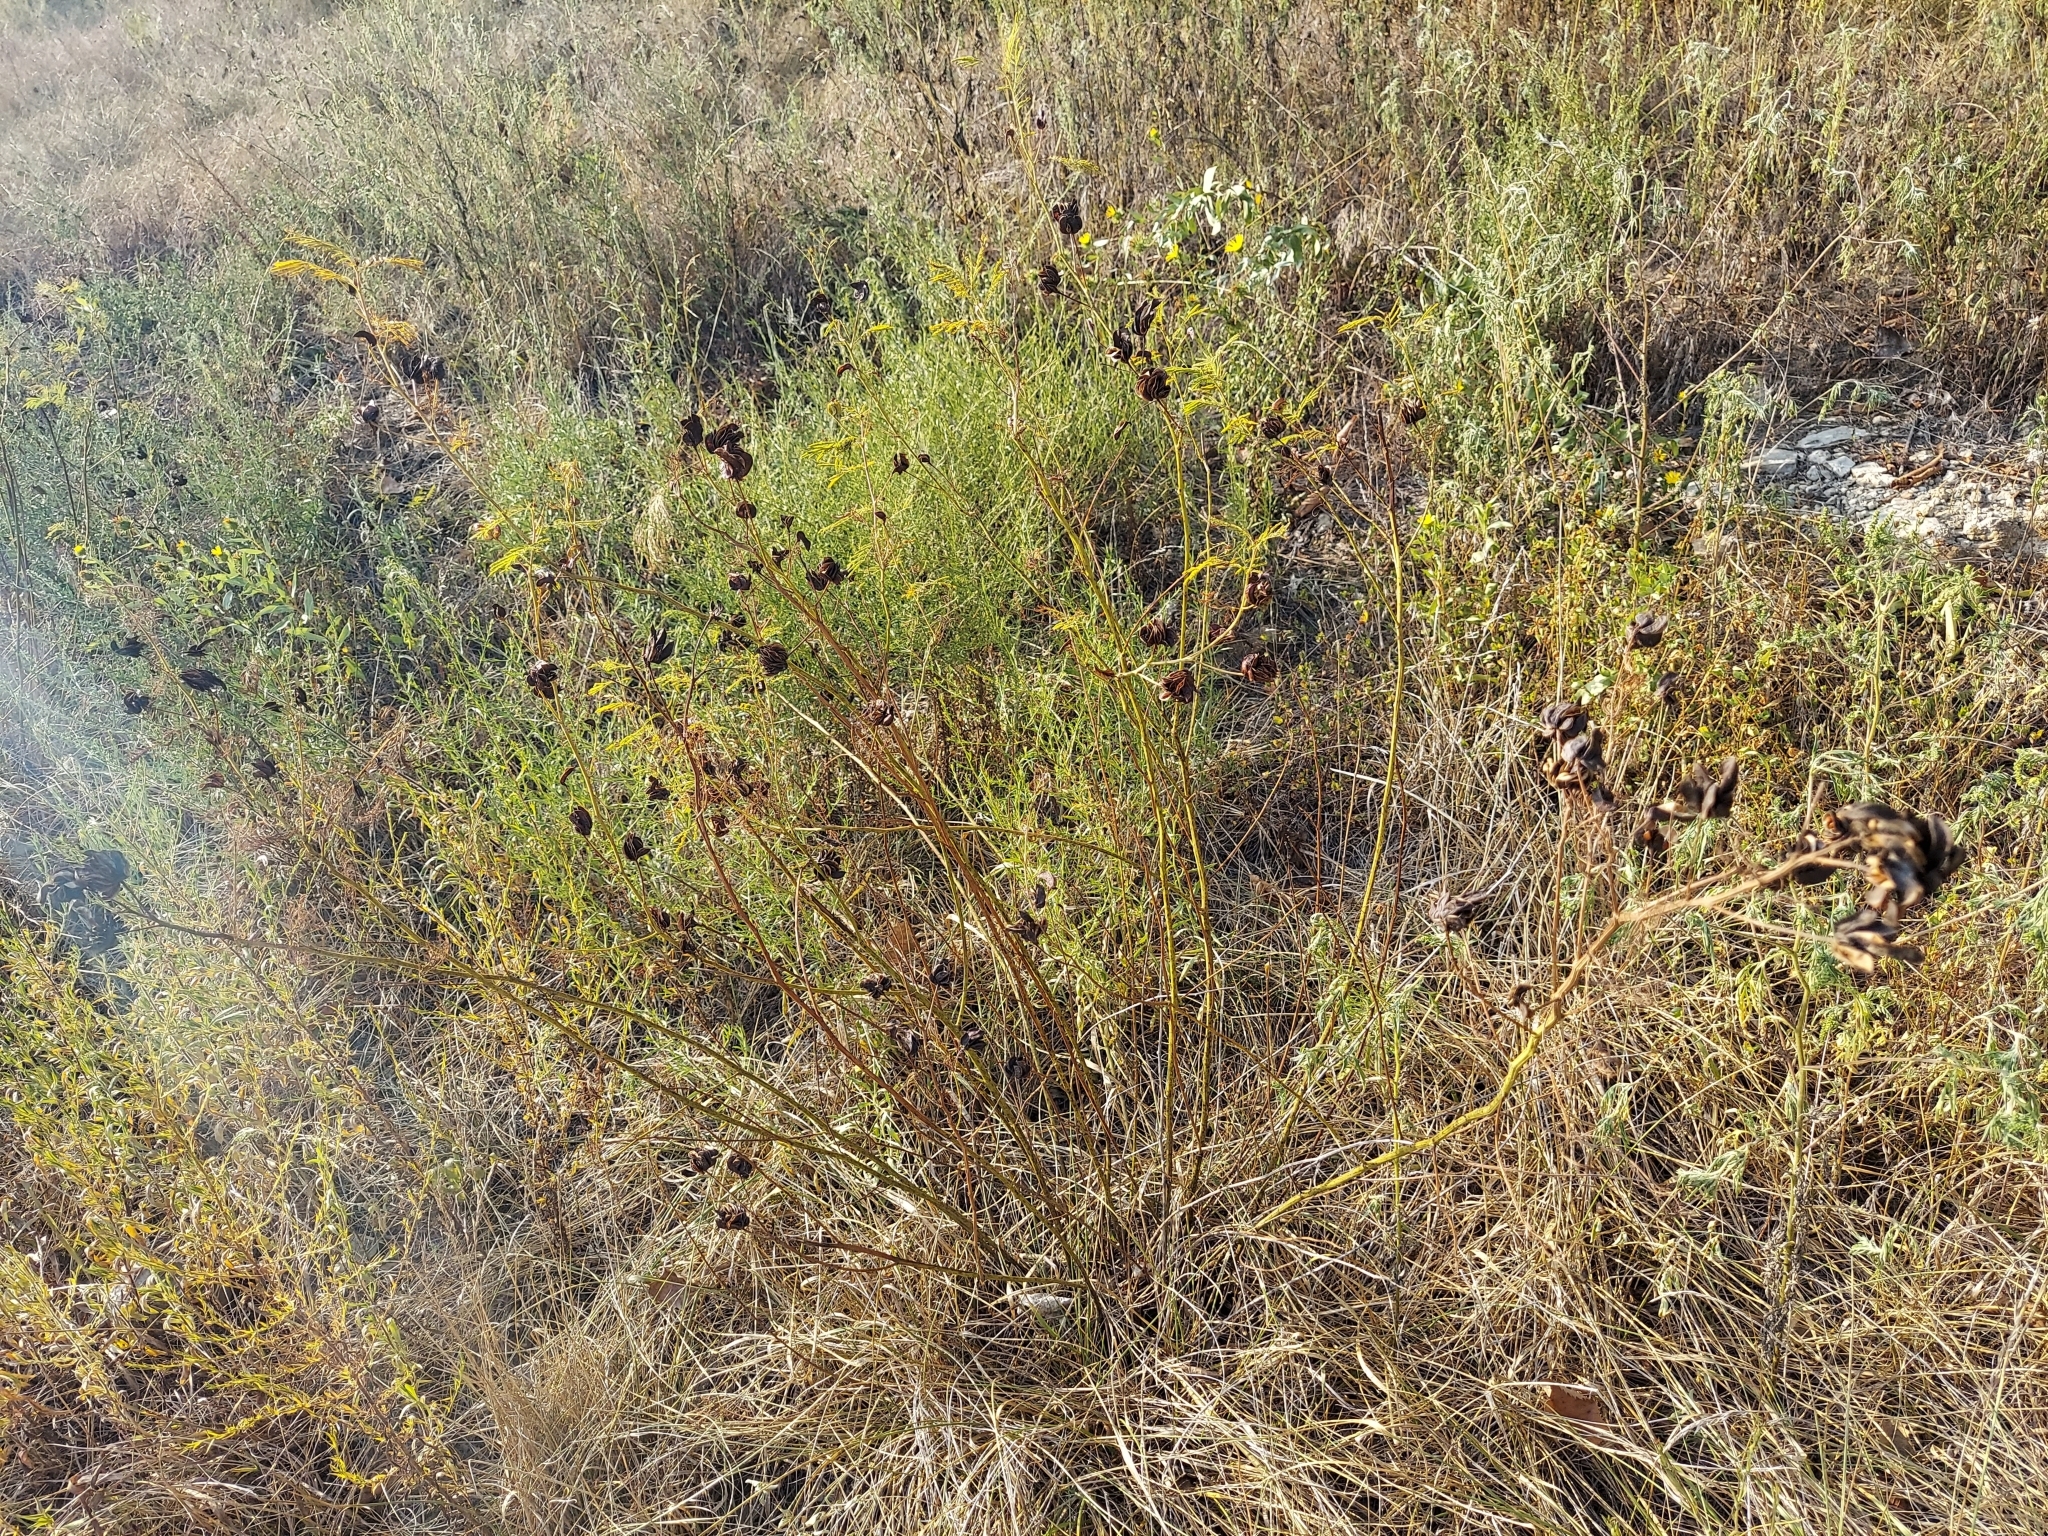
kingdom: Plantae
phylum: Tracheophyta
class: Magnoliopsida
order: Fabales
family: Fabaceae
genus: Desmanthus
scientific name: Desmanthus illinoensis
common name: Illinois bundle-flower
